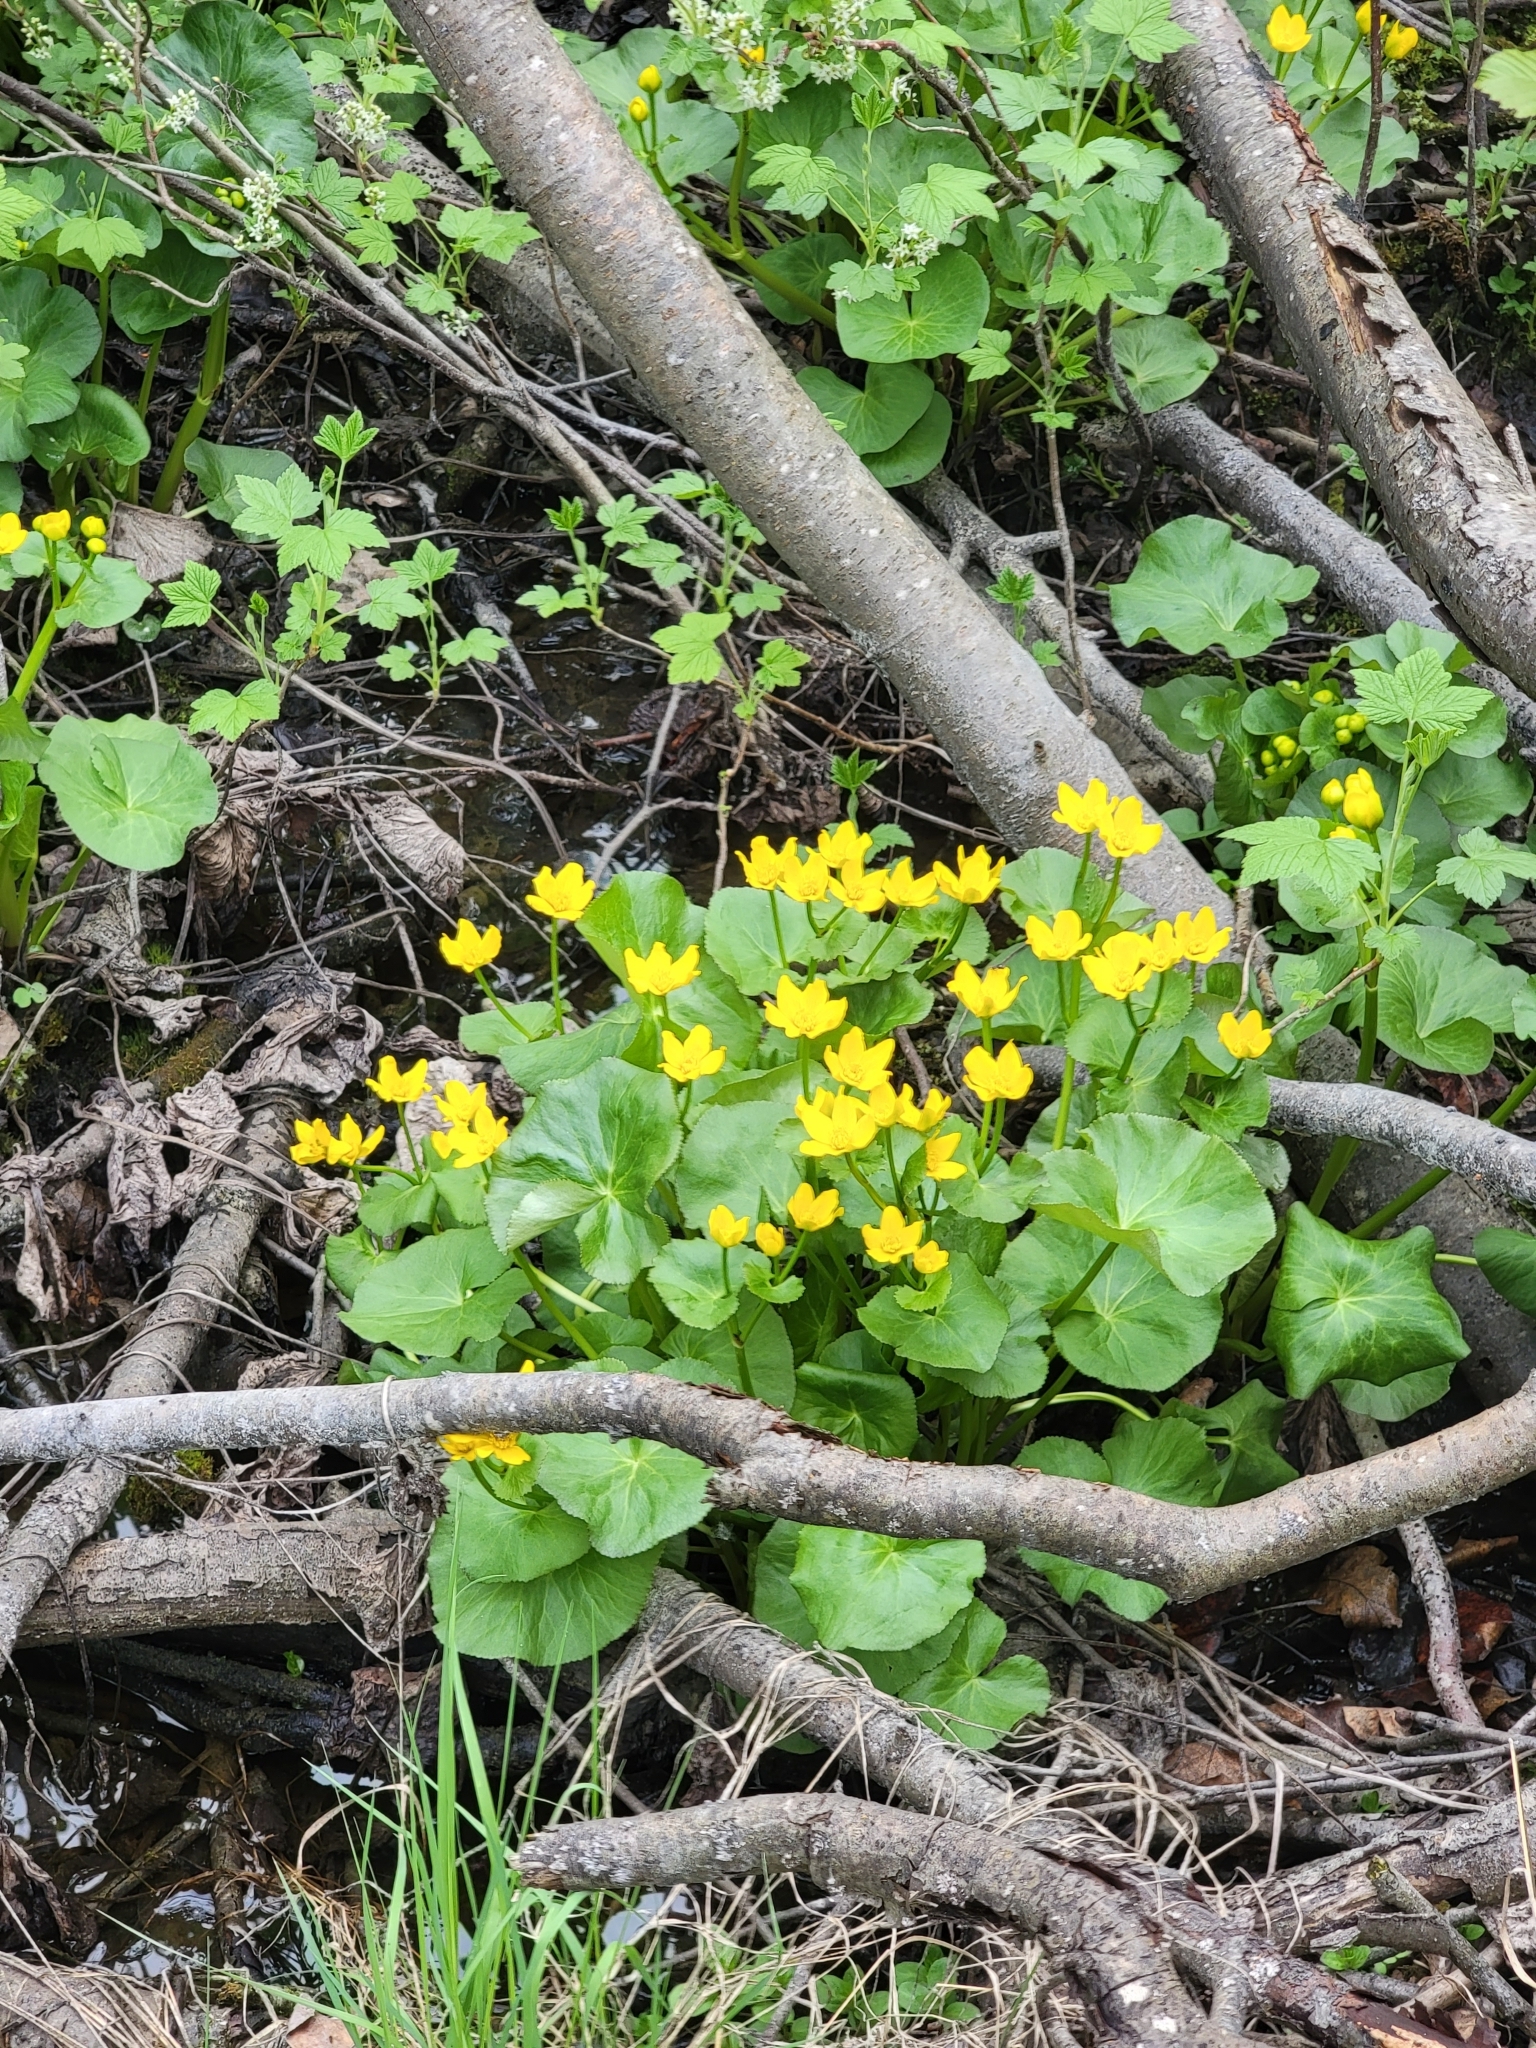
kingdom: Plantae
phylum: Tracheophyta
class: Magnoliopsida
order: Ranunculales
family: Ranunculaceae
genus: Caltha
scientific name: Caltha palustris
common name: Marsh marigold
